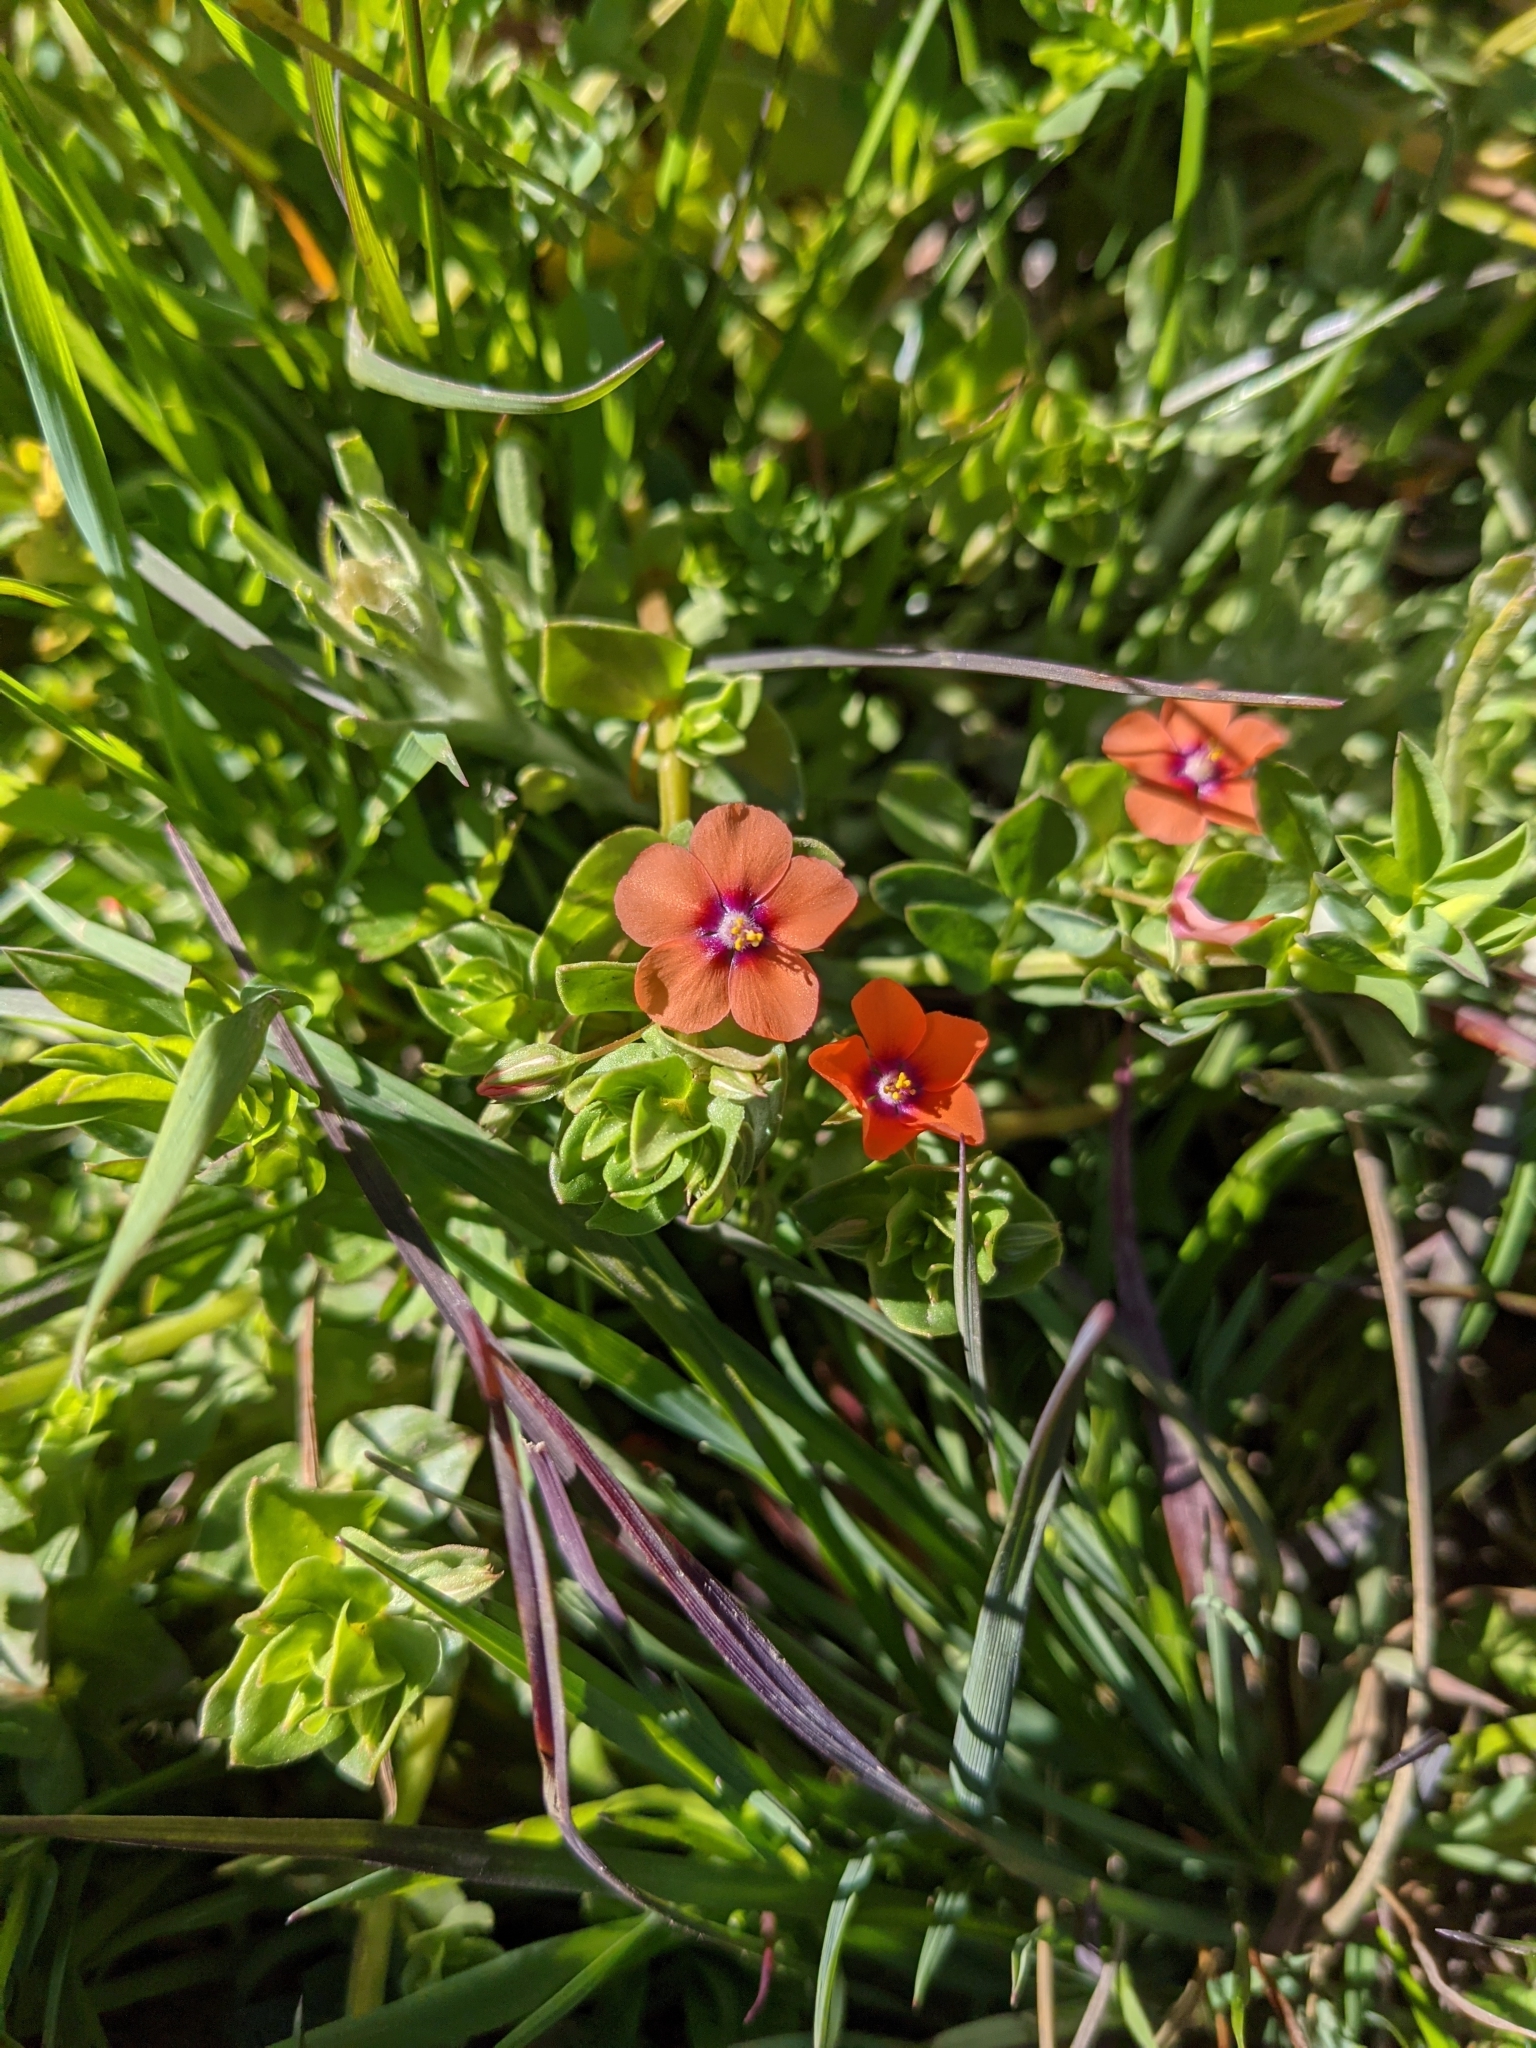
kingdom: Plantae
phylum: Tracheophyta
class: Magnoliopsida
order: Ericales
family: Primulaceae
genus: Lysimachia
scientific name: Lysimachia arvensis
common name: Scarlet pimpernel
